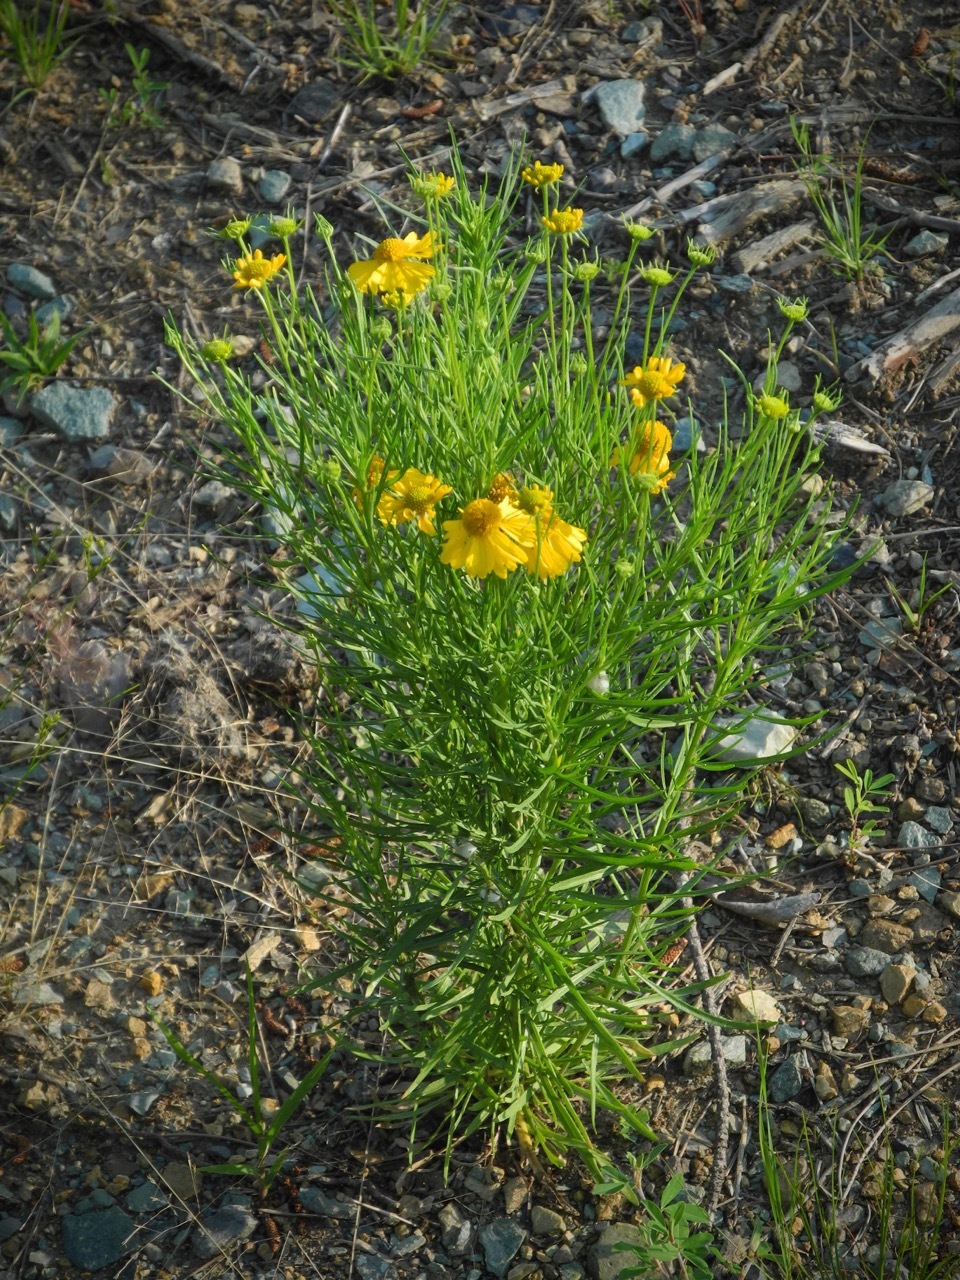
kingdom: Plantae
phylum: Tracheophyta
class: Magnoliopsida
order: Asterales
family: Asteraceae
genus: Helenium
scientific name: Helenium amarum
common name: Bitter sneezeweed
